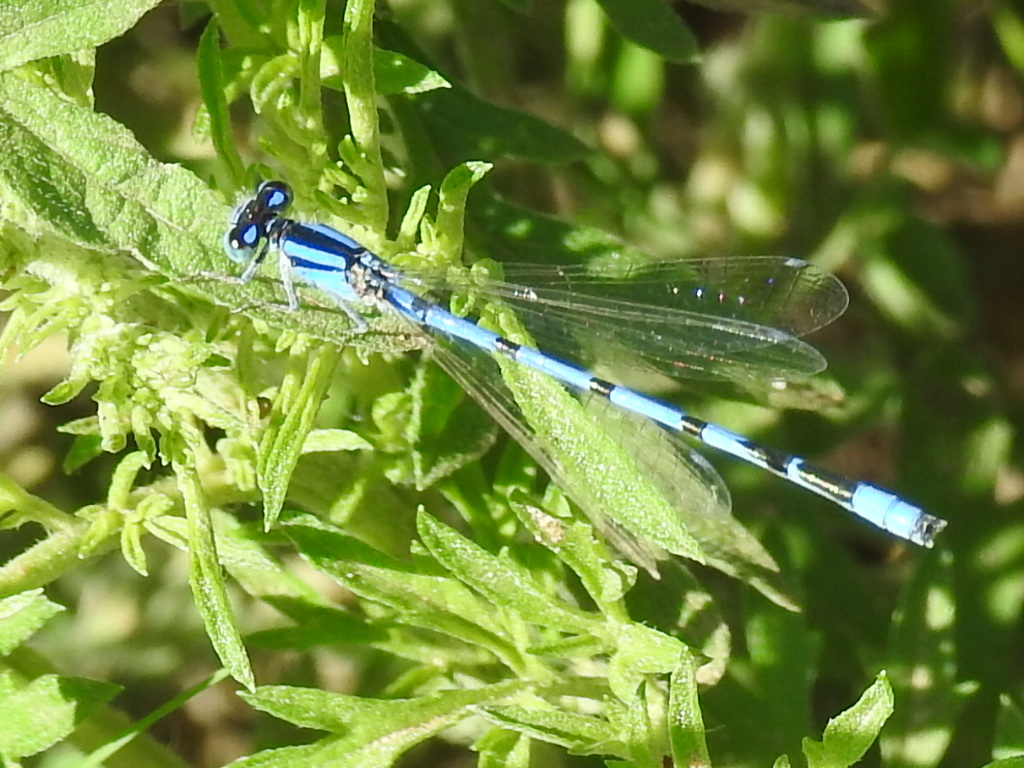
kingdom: Animalia
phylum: Arthropoda
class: Insecta
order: Odonata
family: Coenagrionidae
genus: Enallagma
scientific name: Enallagma civile
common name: Damselfly
